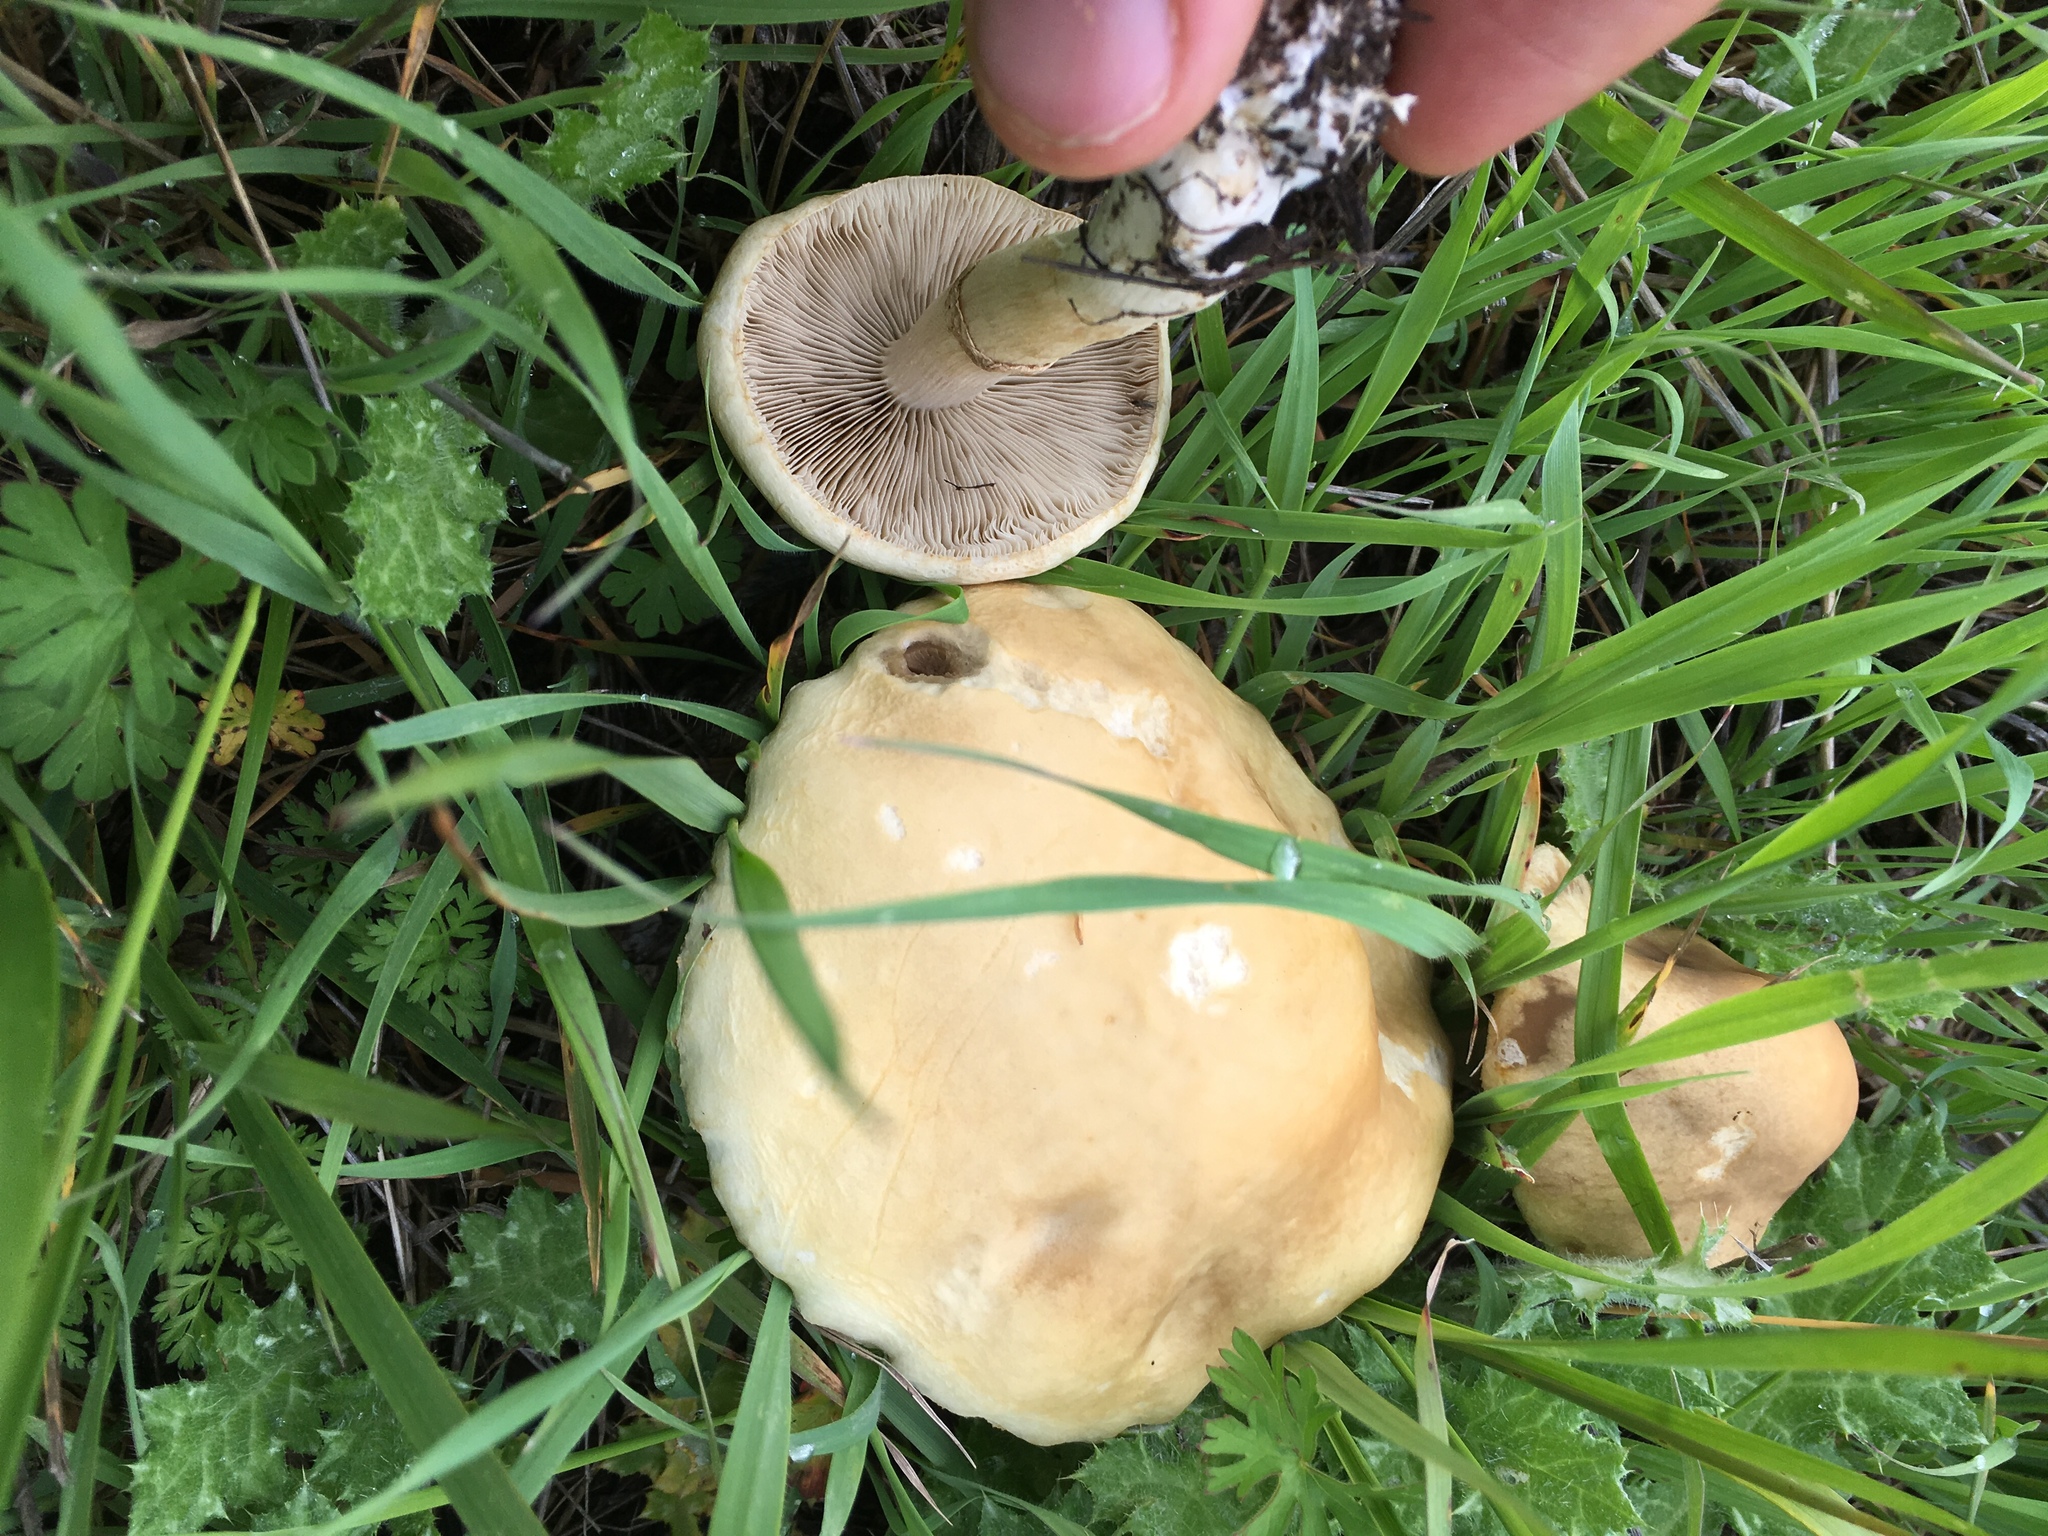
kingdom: Fungi
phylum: Basidiomycota
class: Agaricomycetes
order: Agaricales
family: Strophariaceae
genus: Agrocybe
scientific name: Agrocybe praecox
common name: Spring fieldcap
